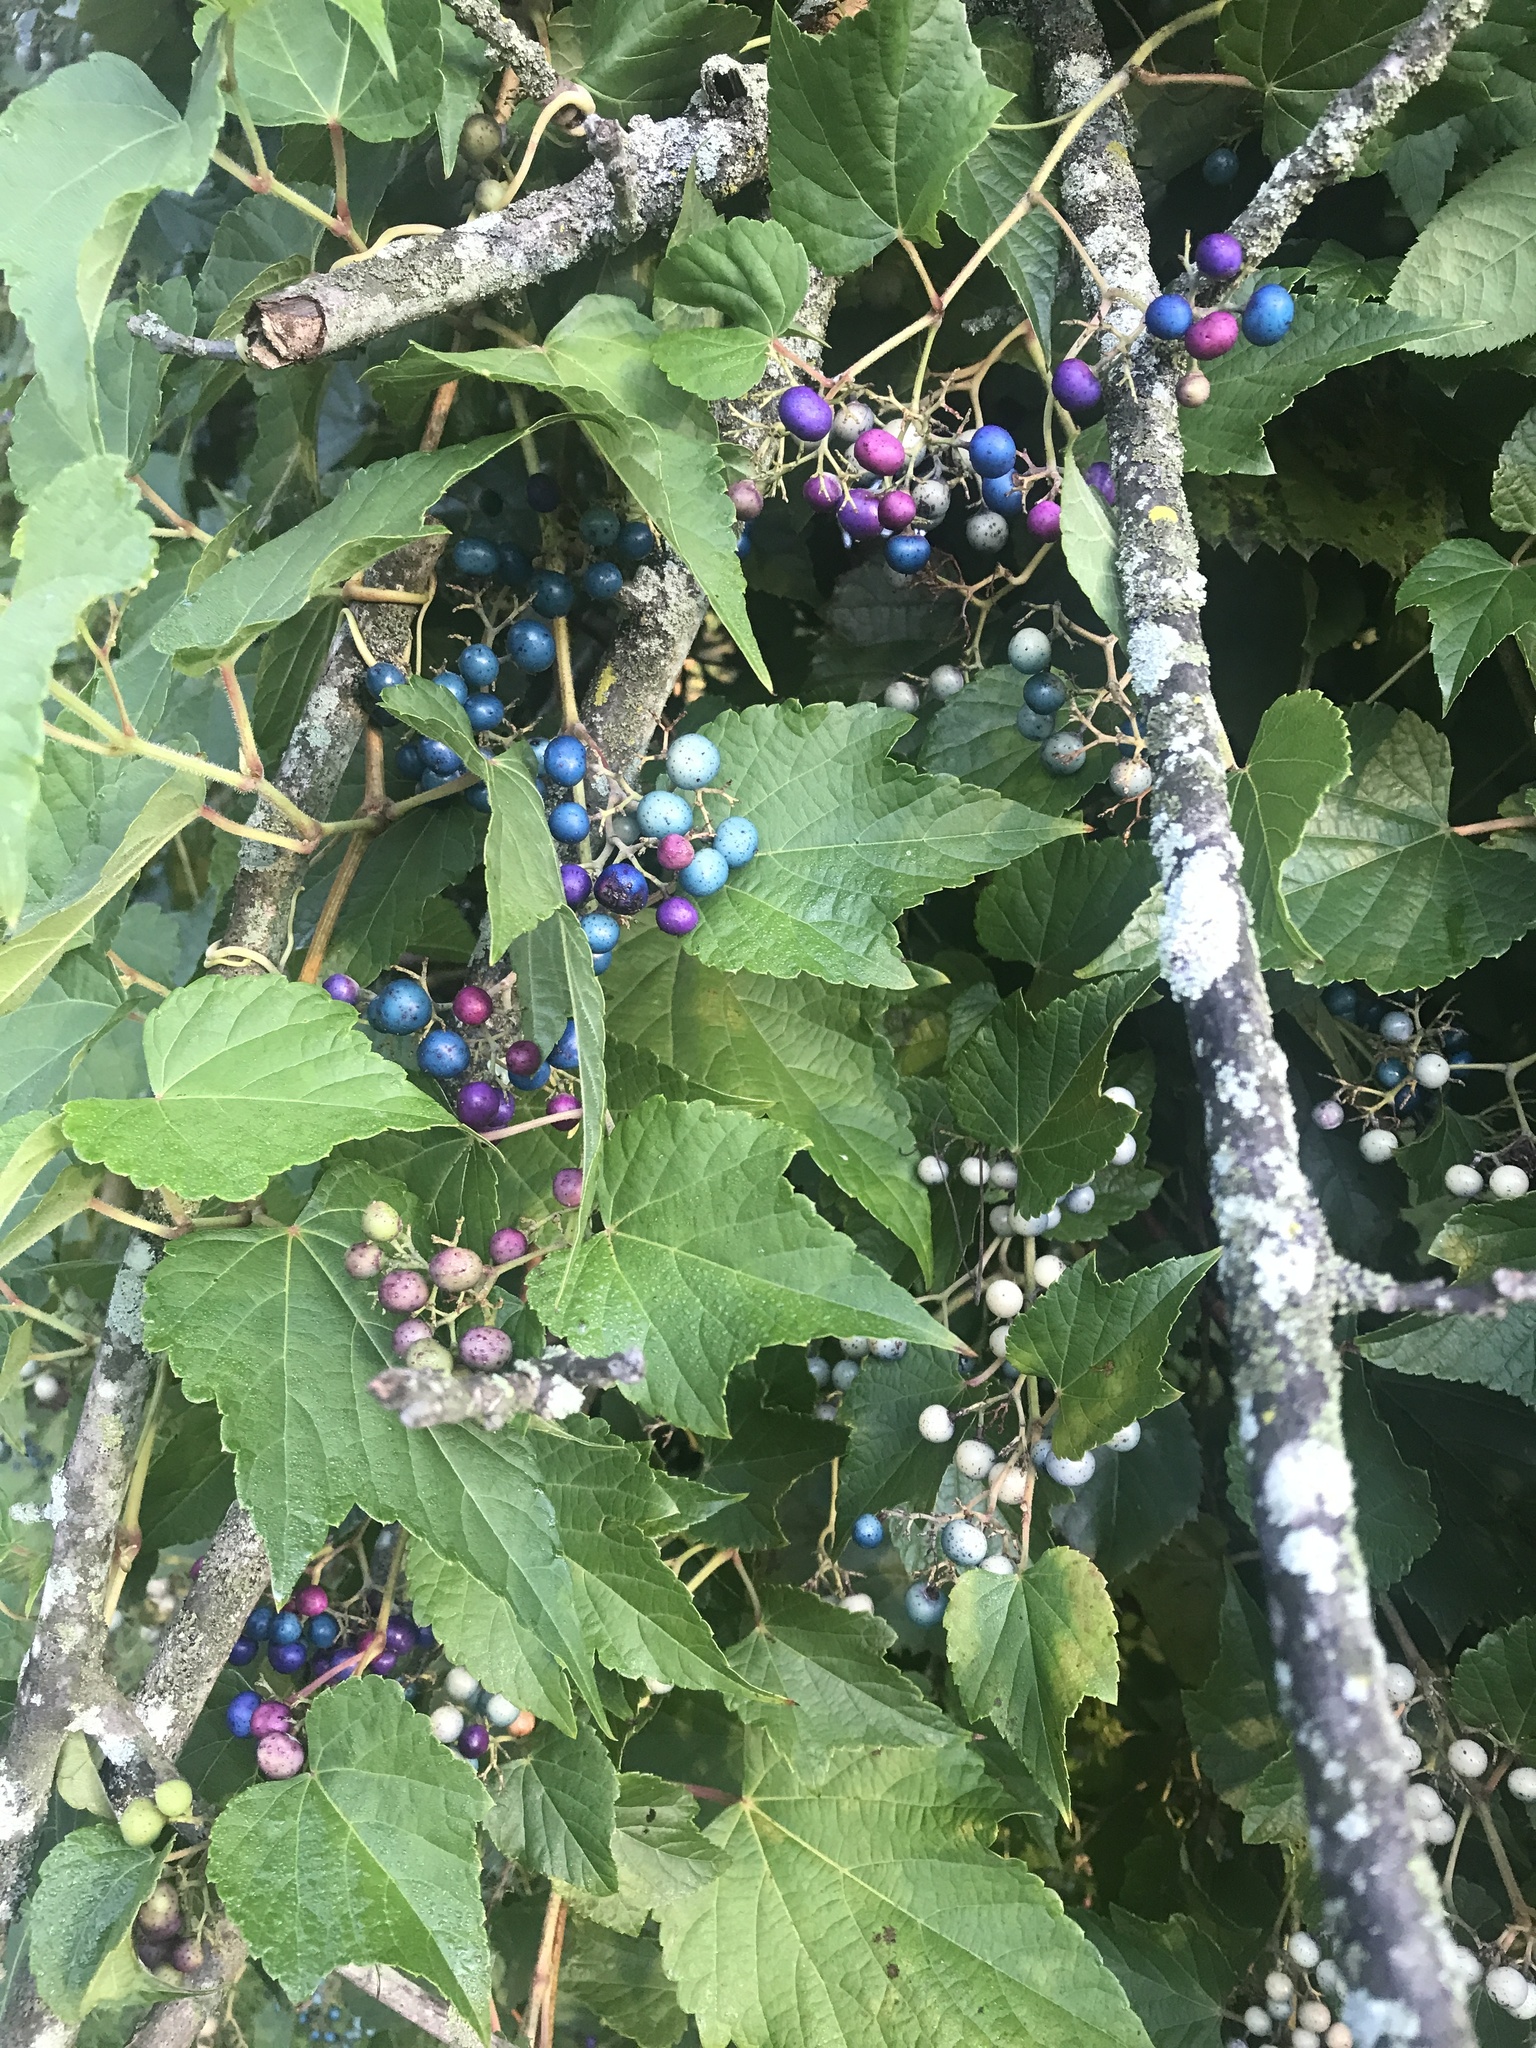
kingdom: Plantae
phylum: Tracheophyta
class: Magnoliopsida
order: Vitales
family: Vitaceae
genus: Ampelopsis
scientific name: Ampelopsis glandulosa
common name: Amur peppervine
